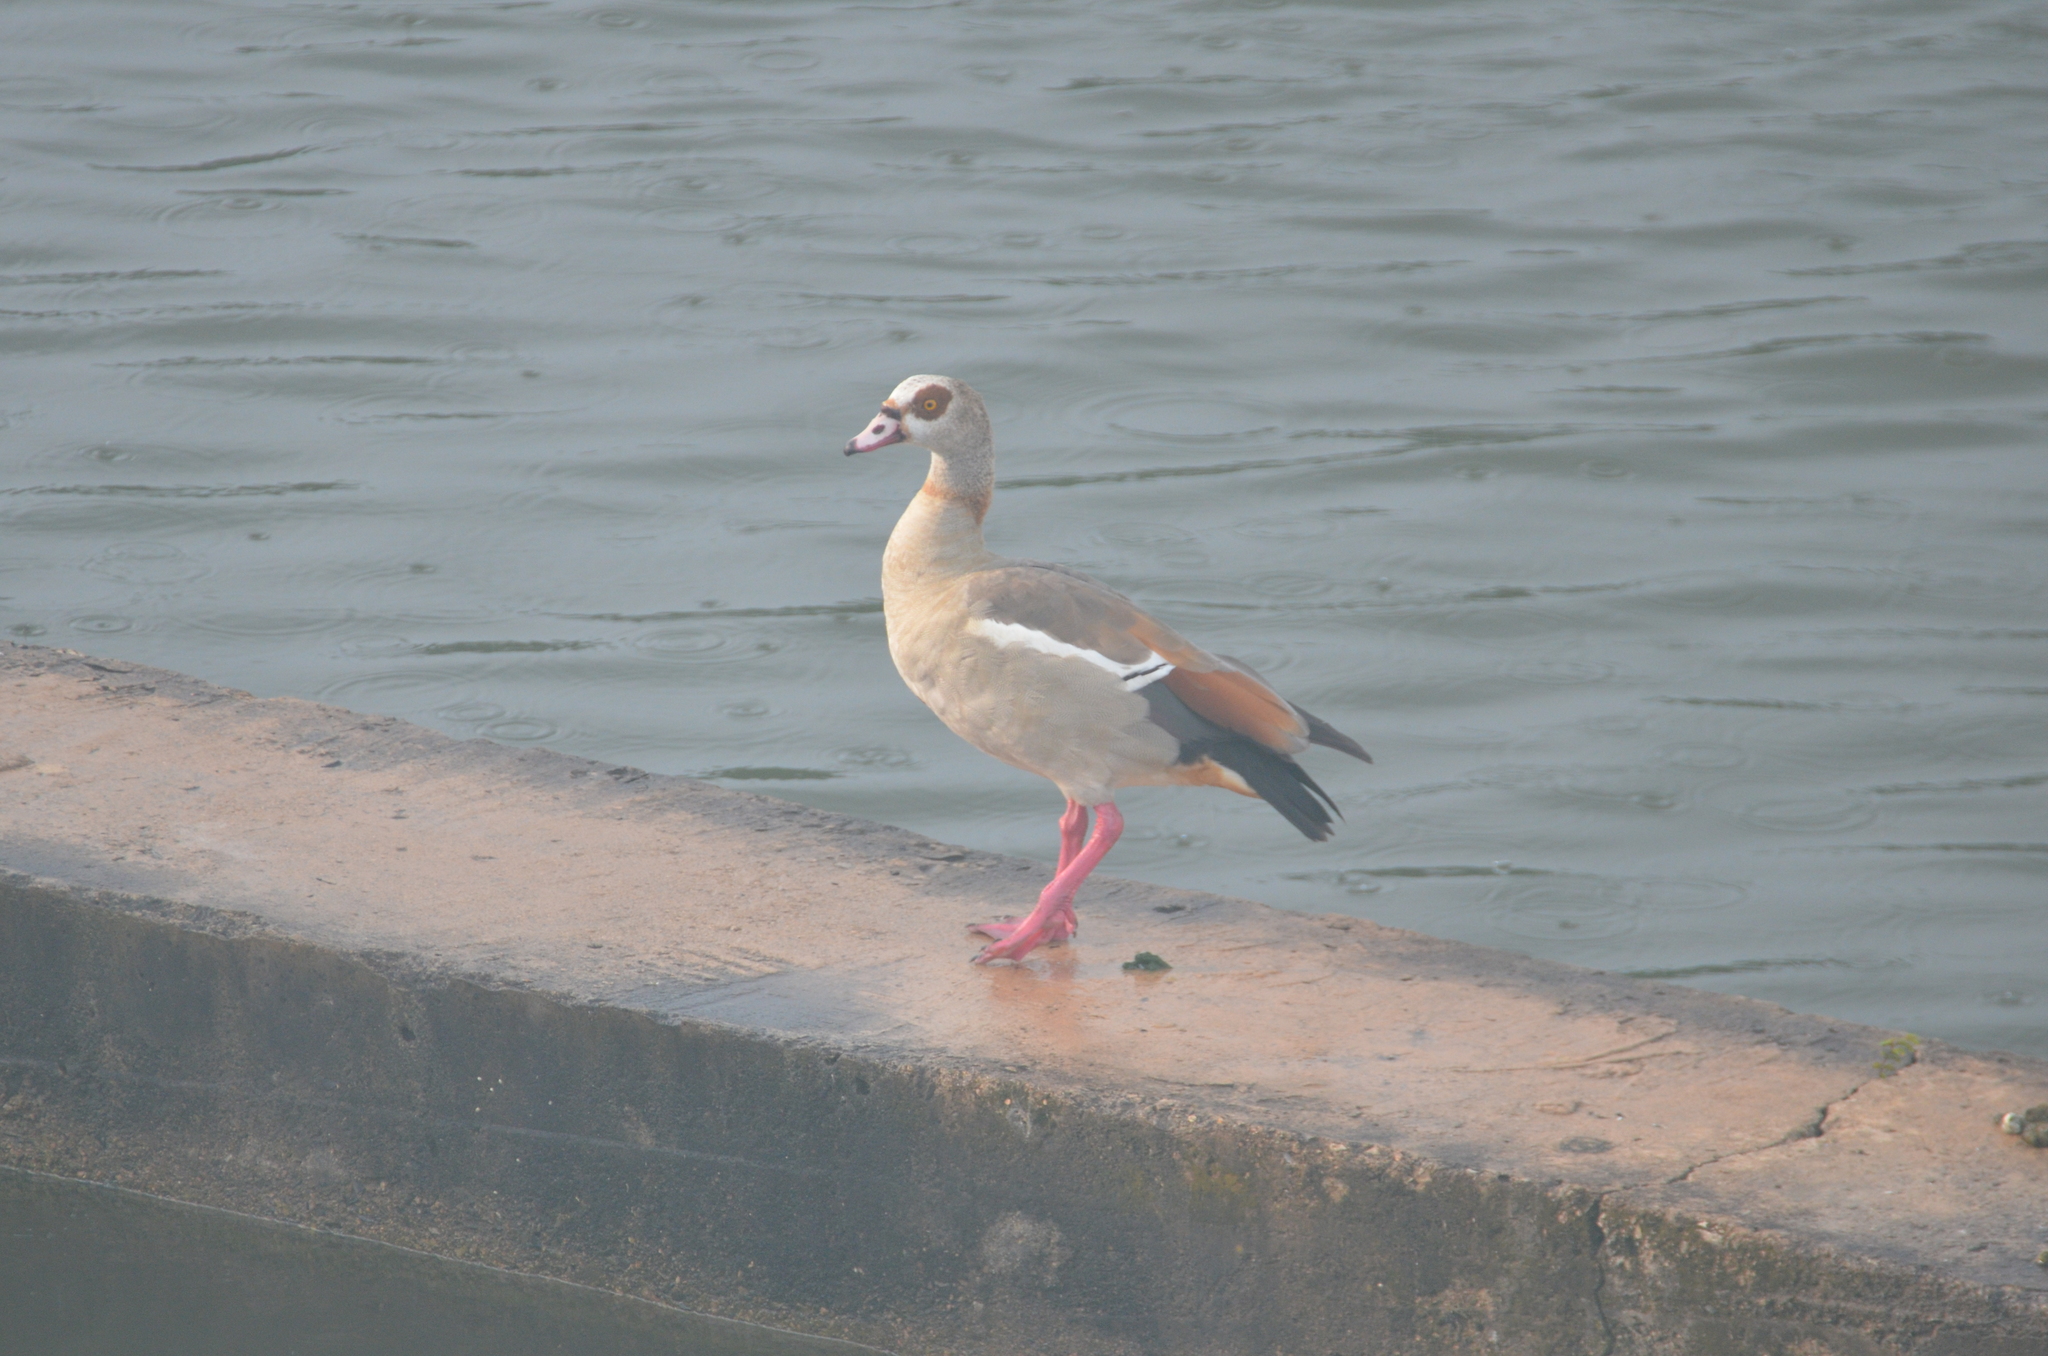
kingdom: Animalia
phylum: Chordata
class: Aves
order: Anseriformes
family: Anatidae
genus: Alopochen
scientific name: Alopochen aegyptiaca
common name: Egyptian goose
